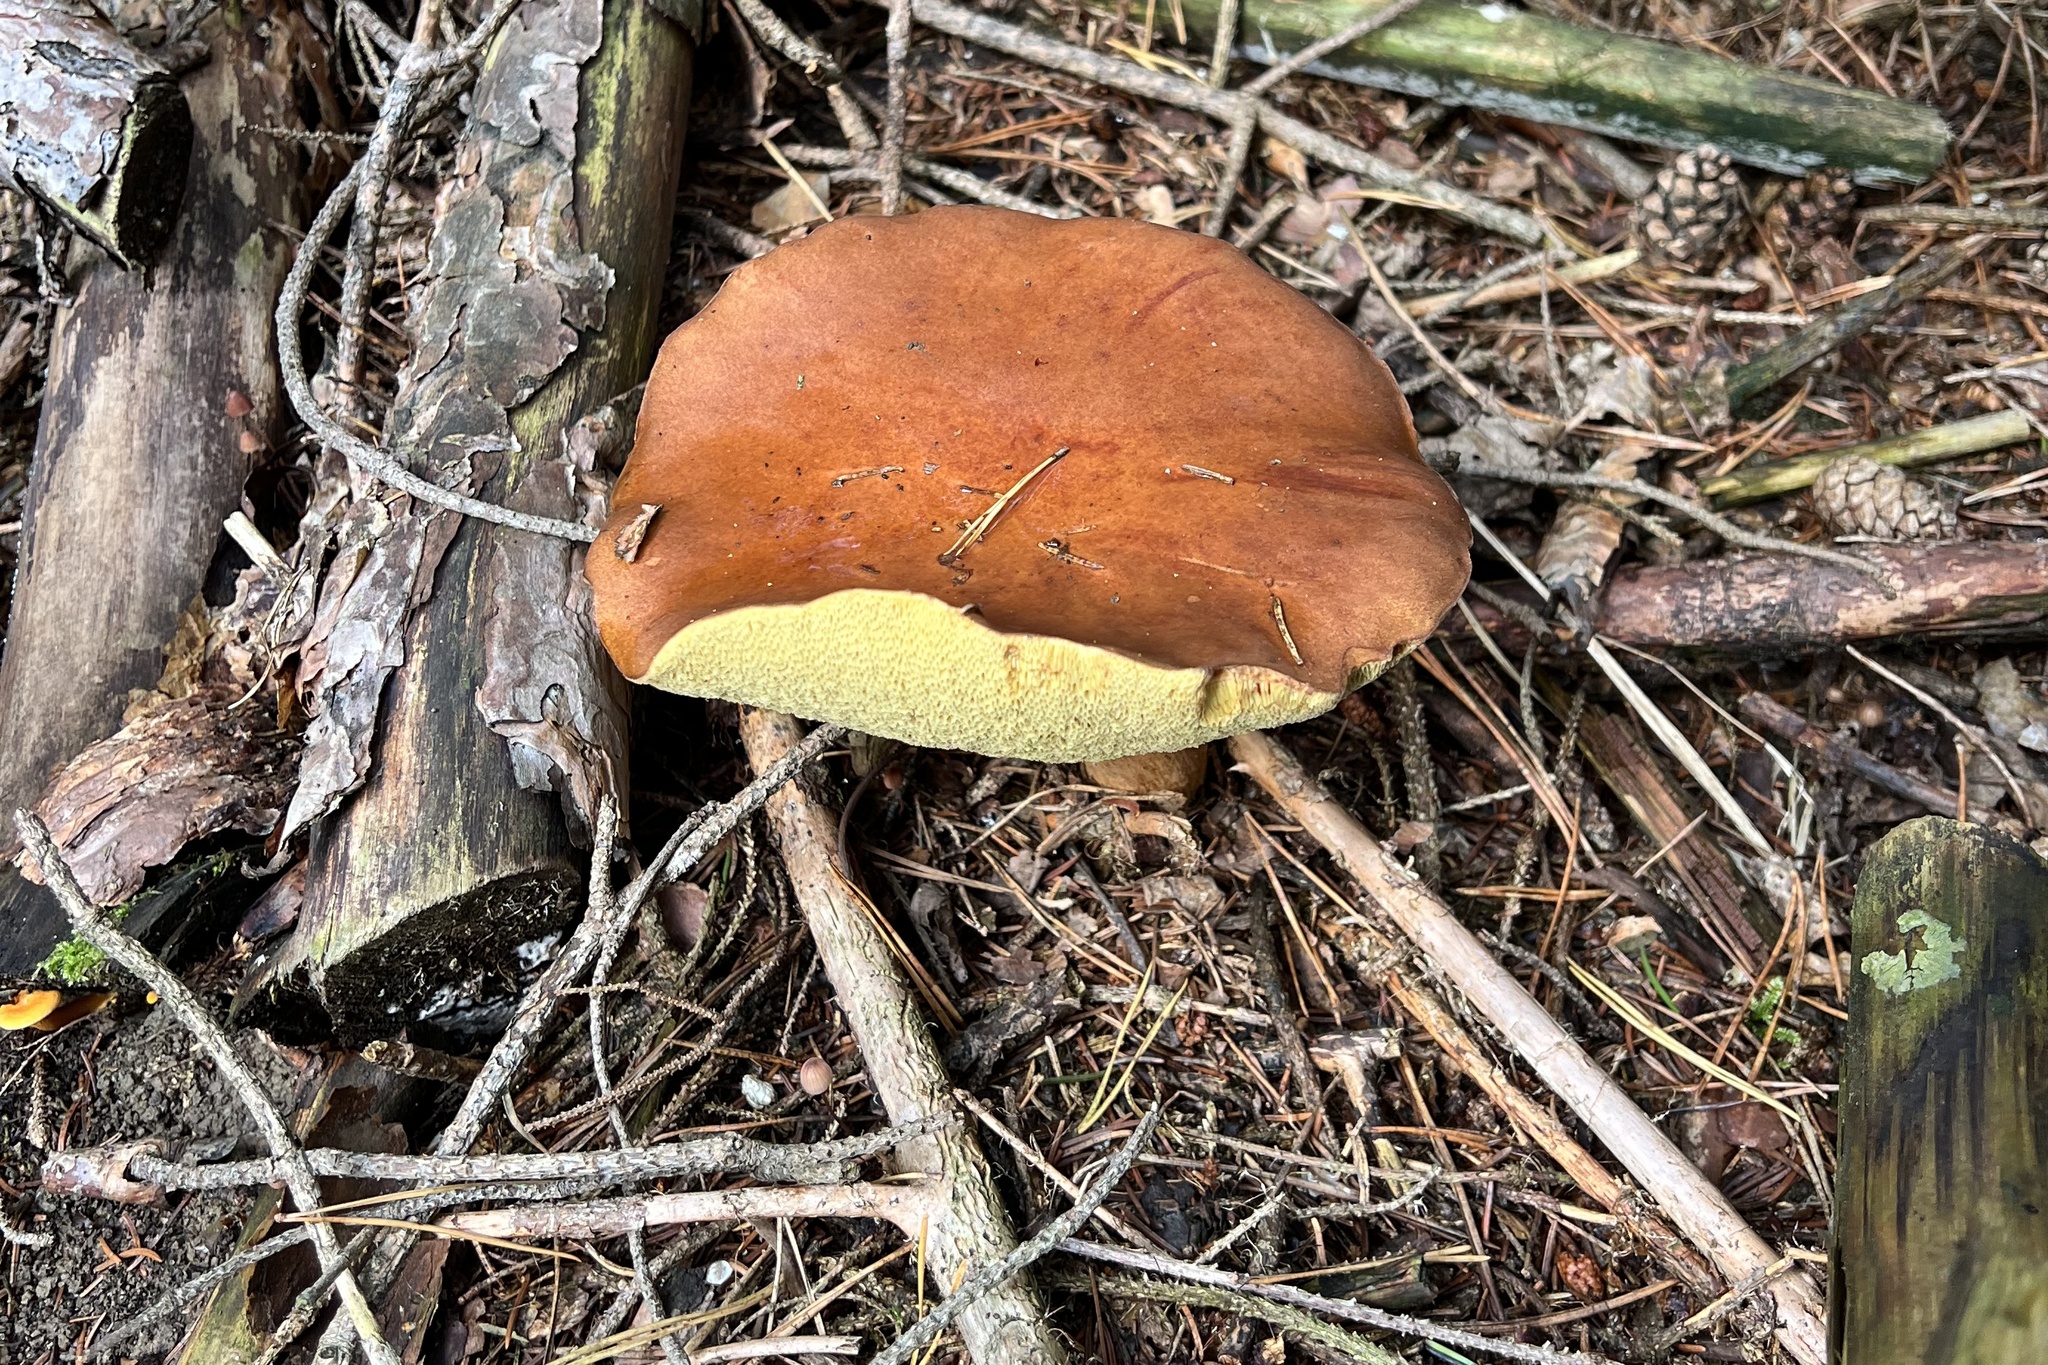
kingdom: Fungi
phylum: Basidiomycota
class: Agaricomycetes
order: Boletales
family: Boletaceae
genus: Imleria
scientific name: Imleria badia
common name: Bay bolete
